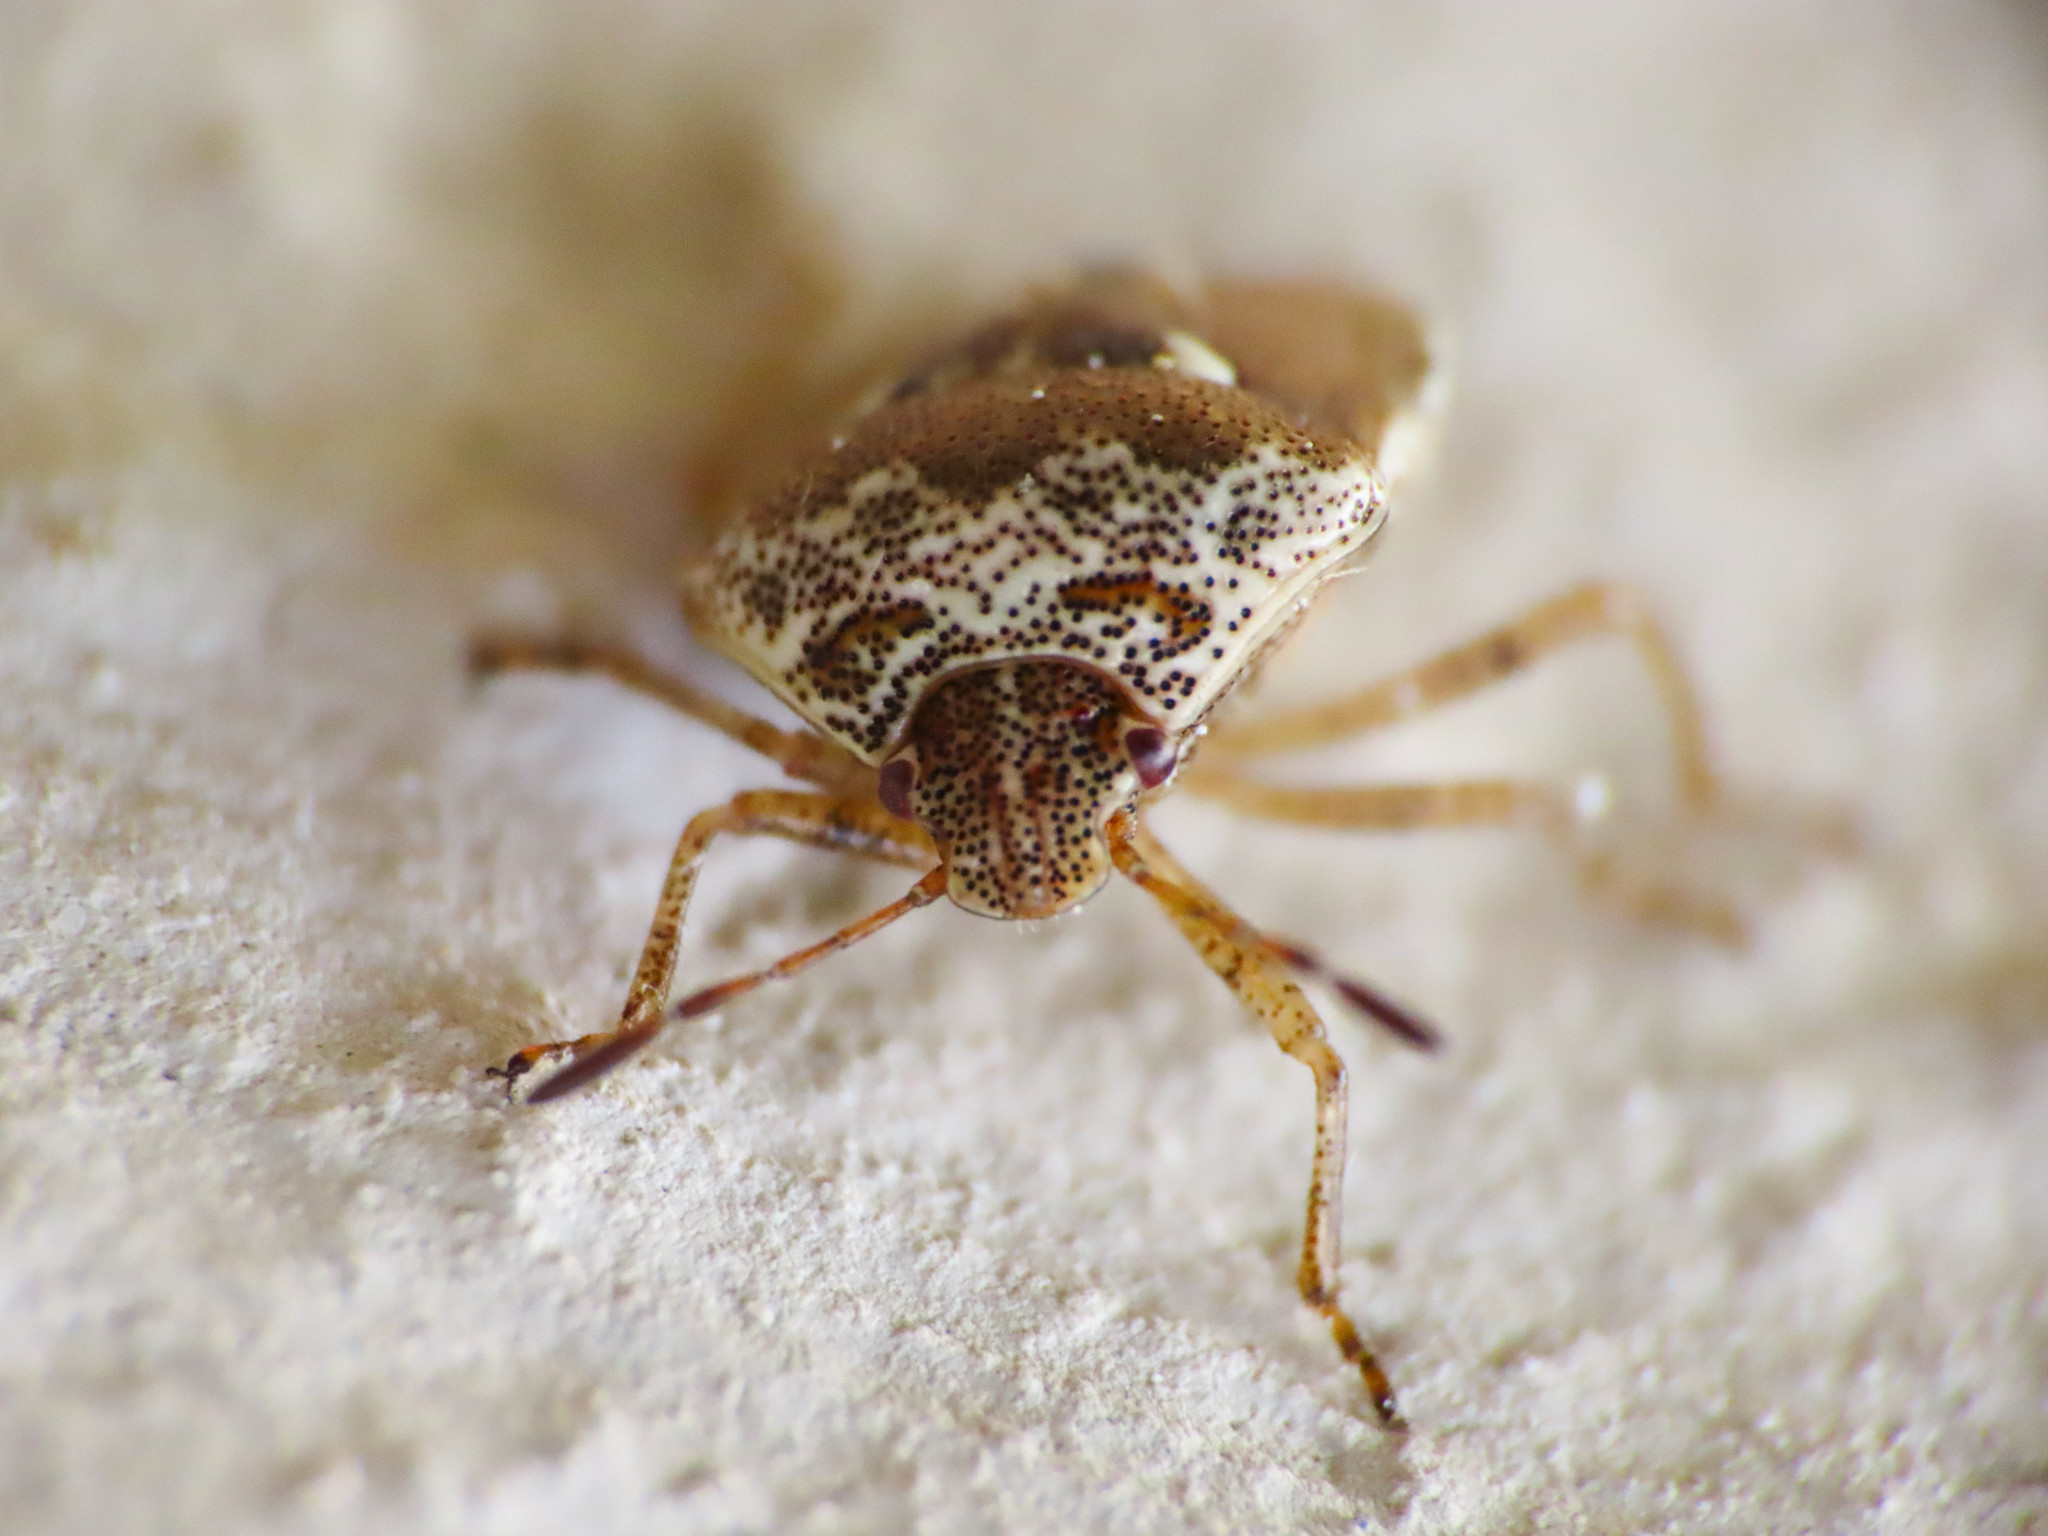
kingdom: Animalia
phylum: Arthropoda
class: Insecta
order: Hemiptera
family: Pentatomidae
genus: Stagonomus
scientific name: Stagonomus bipunctatus
